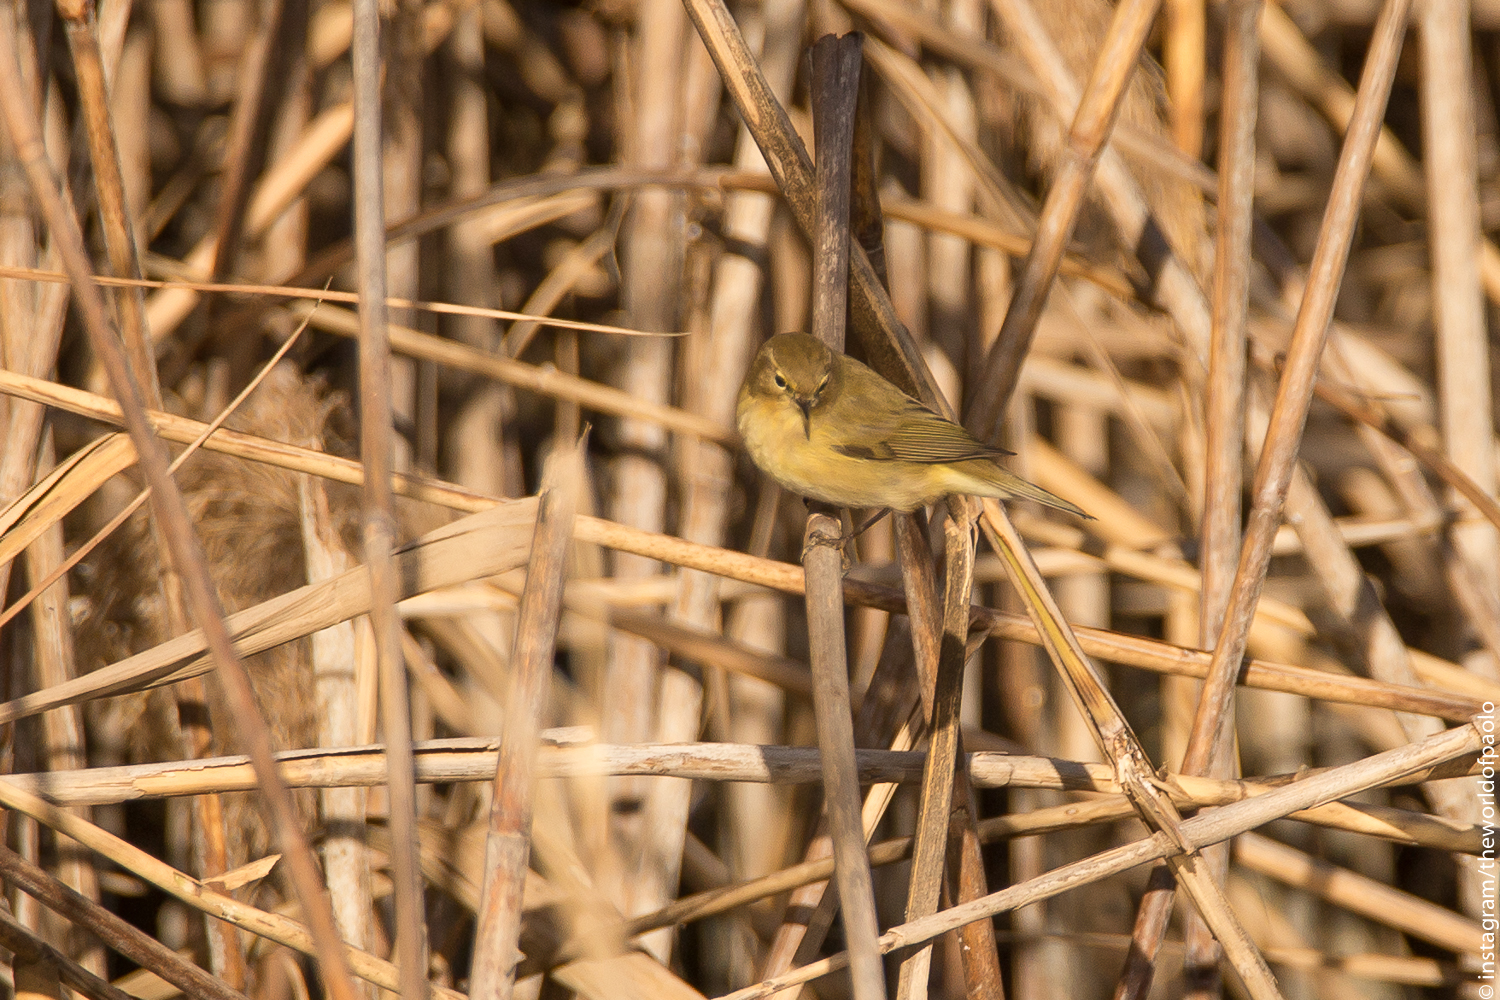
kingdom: Animalia
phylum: Chordata
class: Aves
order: Passeriformes
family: Phylloscopidae
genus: Phylloscopus
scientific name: Phylloscopus collybita
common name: Common chiffchaff
